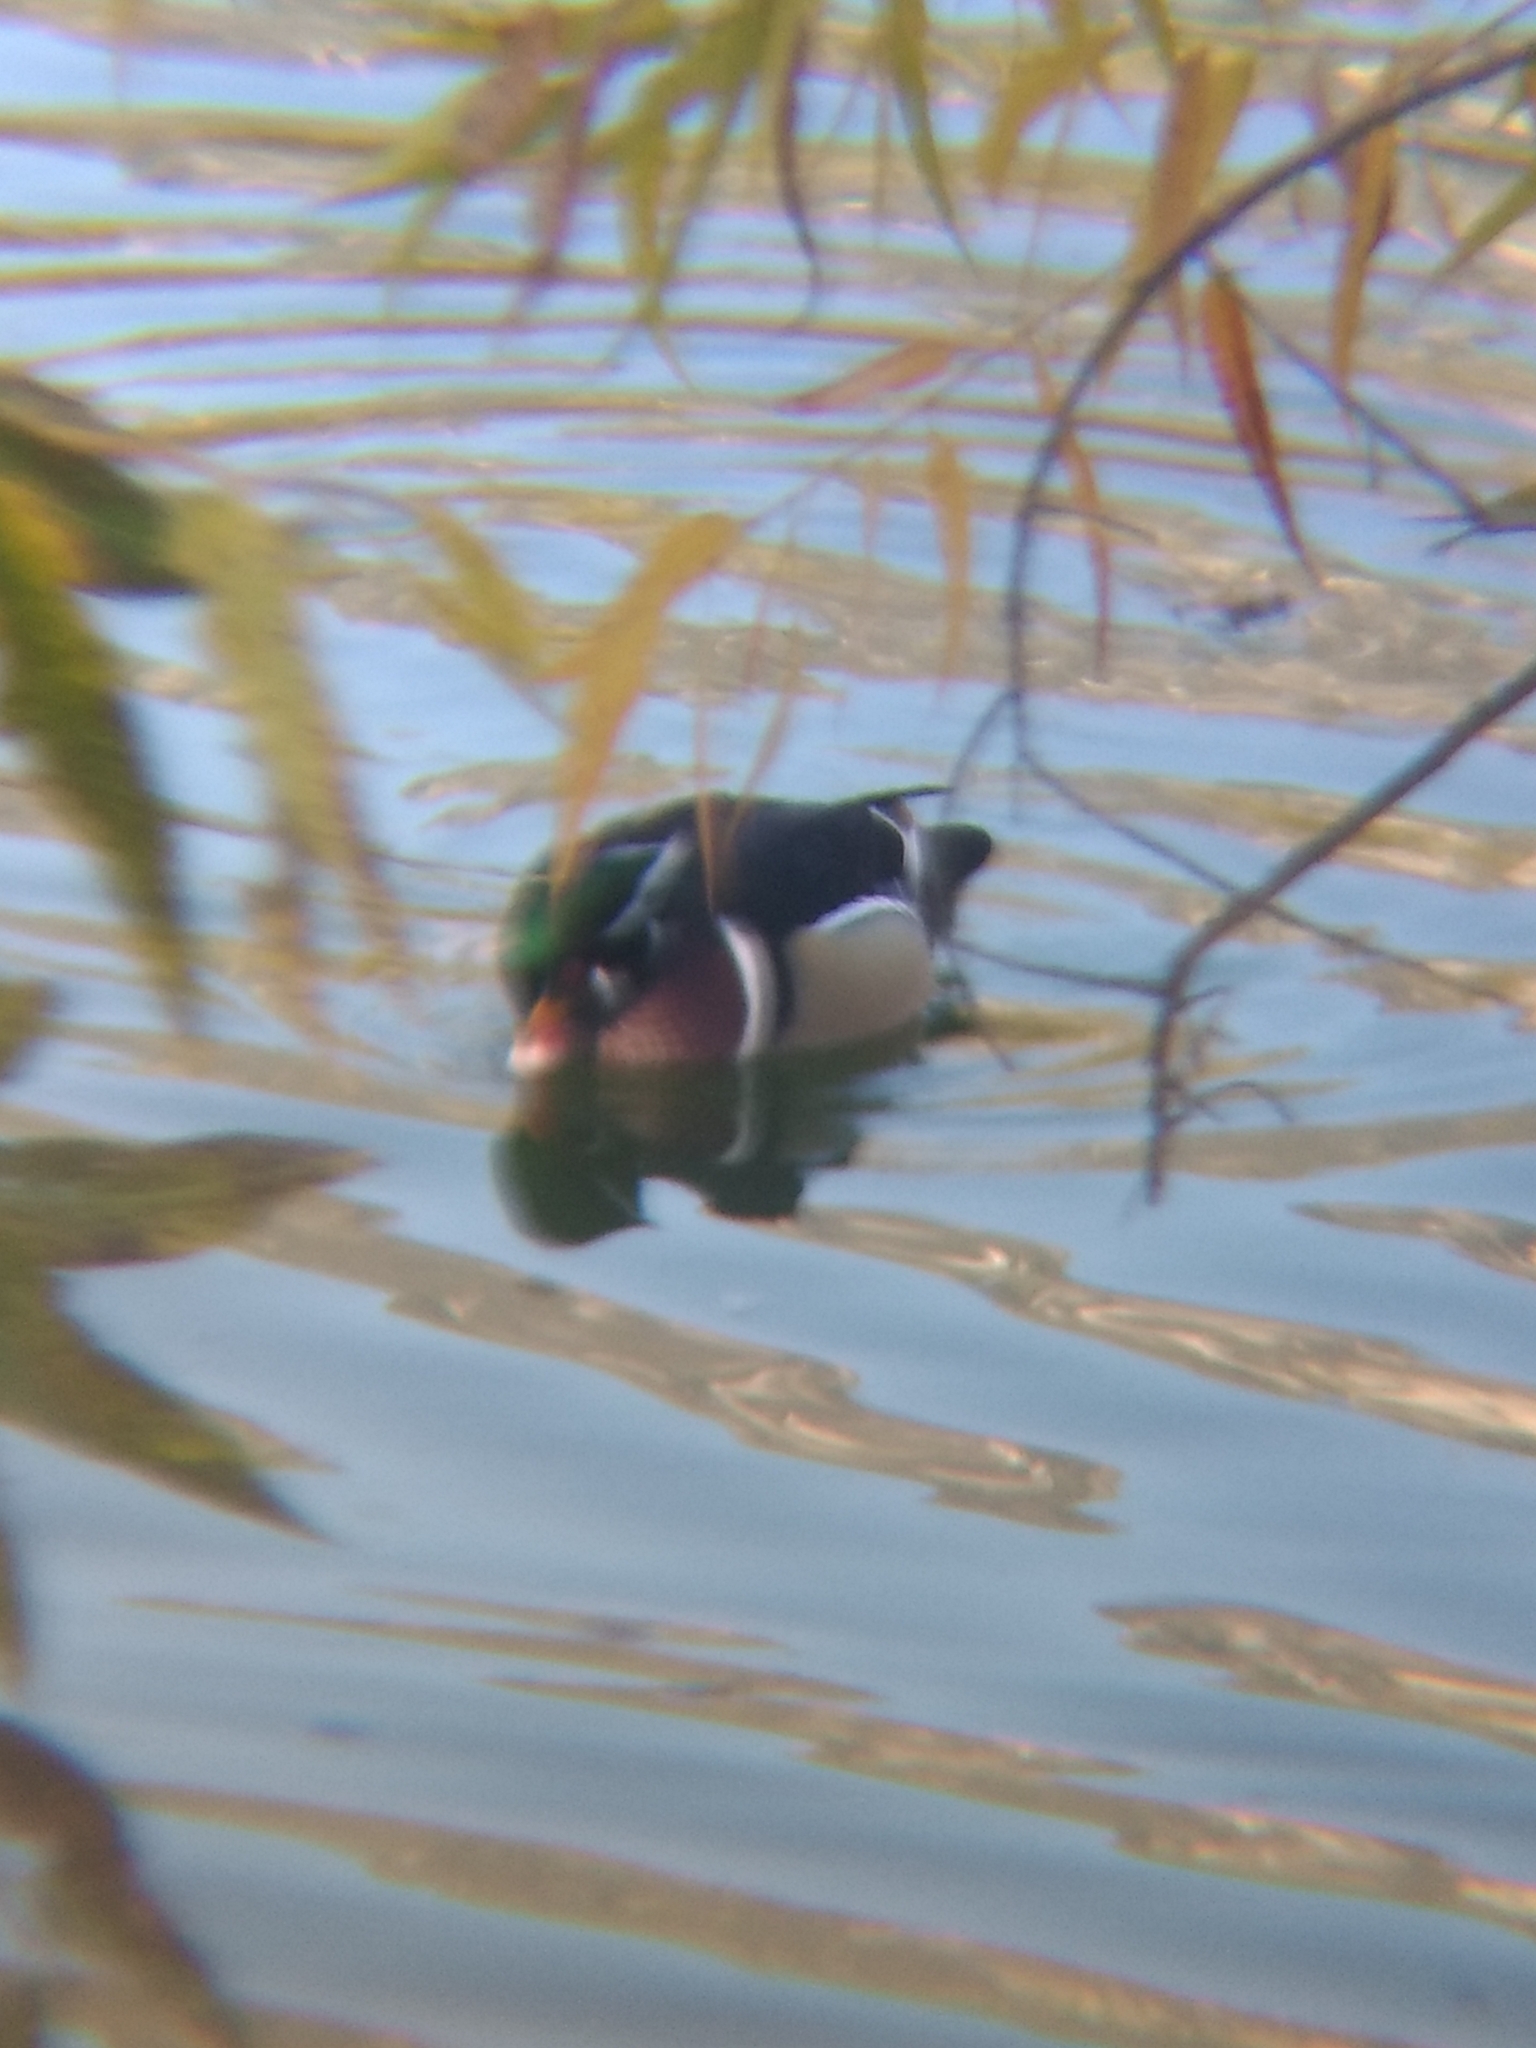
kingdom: Animalia
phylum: Chordata
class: Aves
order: Anseriformes
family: Anatidae
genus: Aix
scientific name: Aix sponsa
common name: Wood duck
